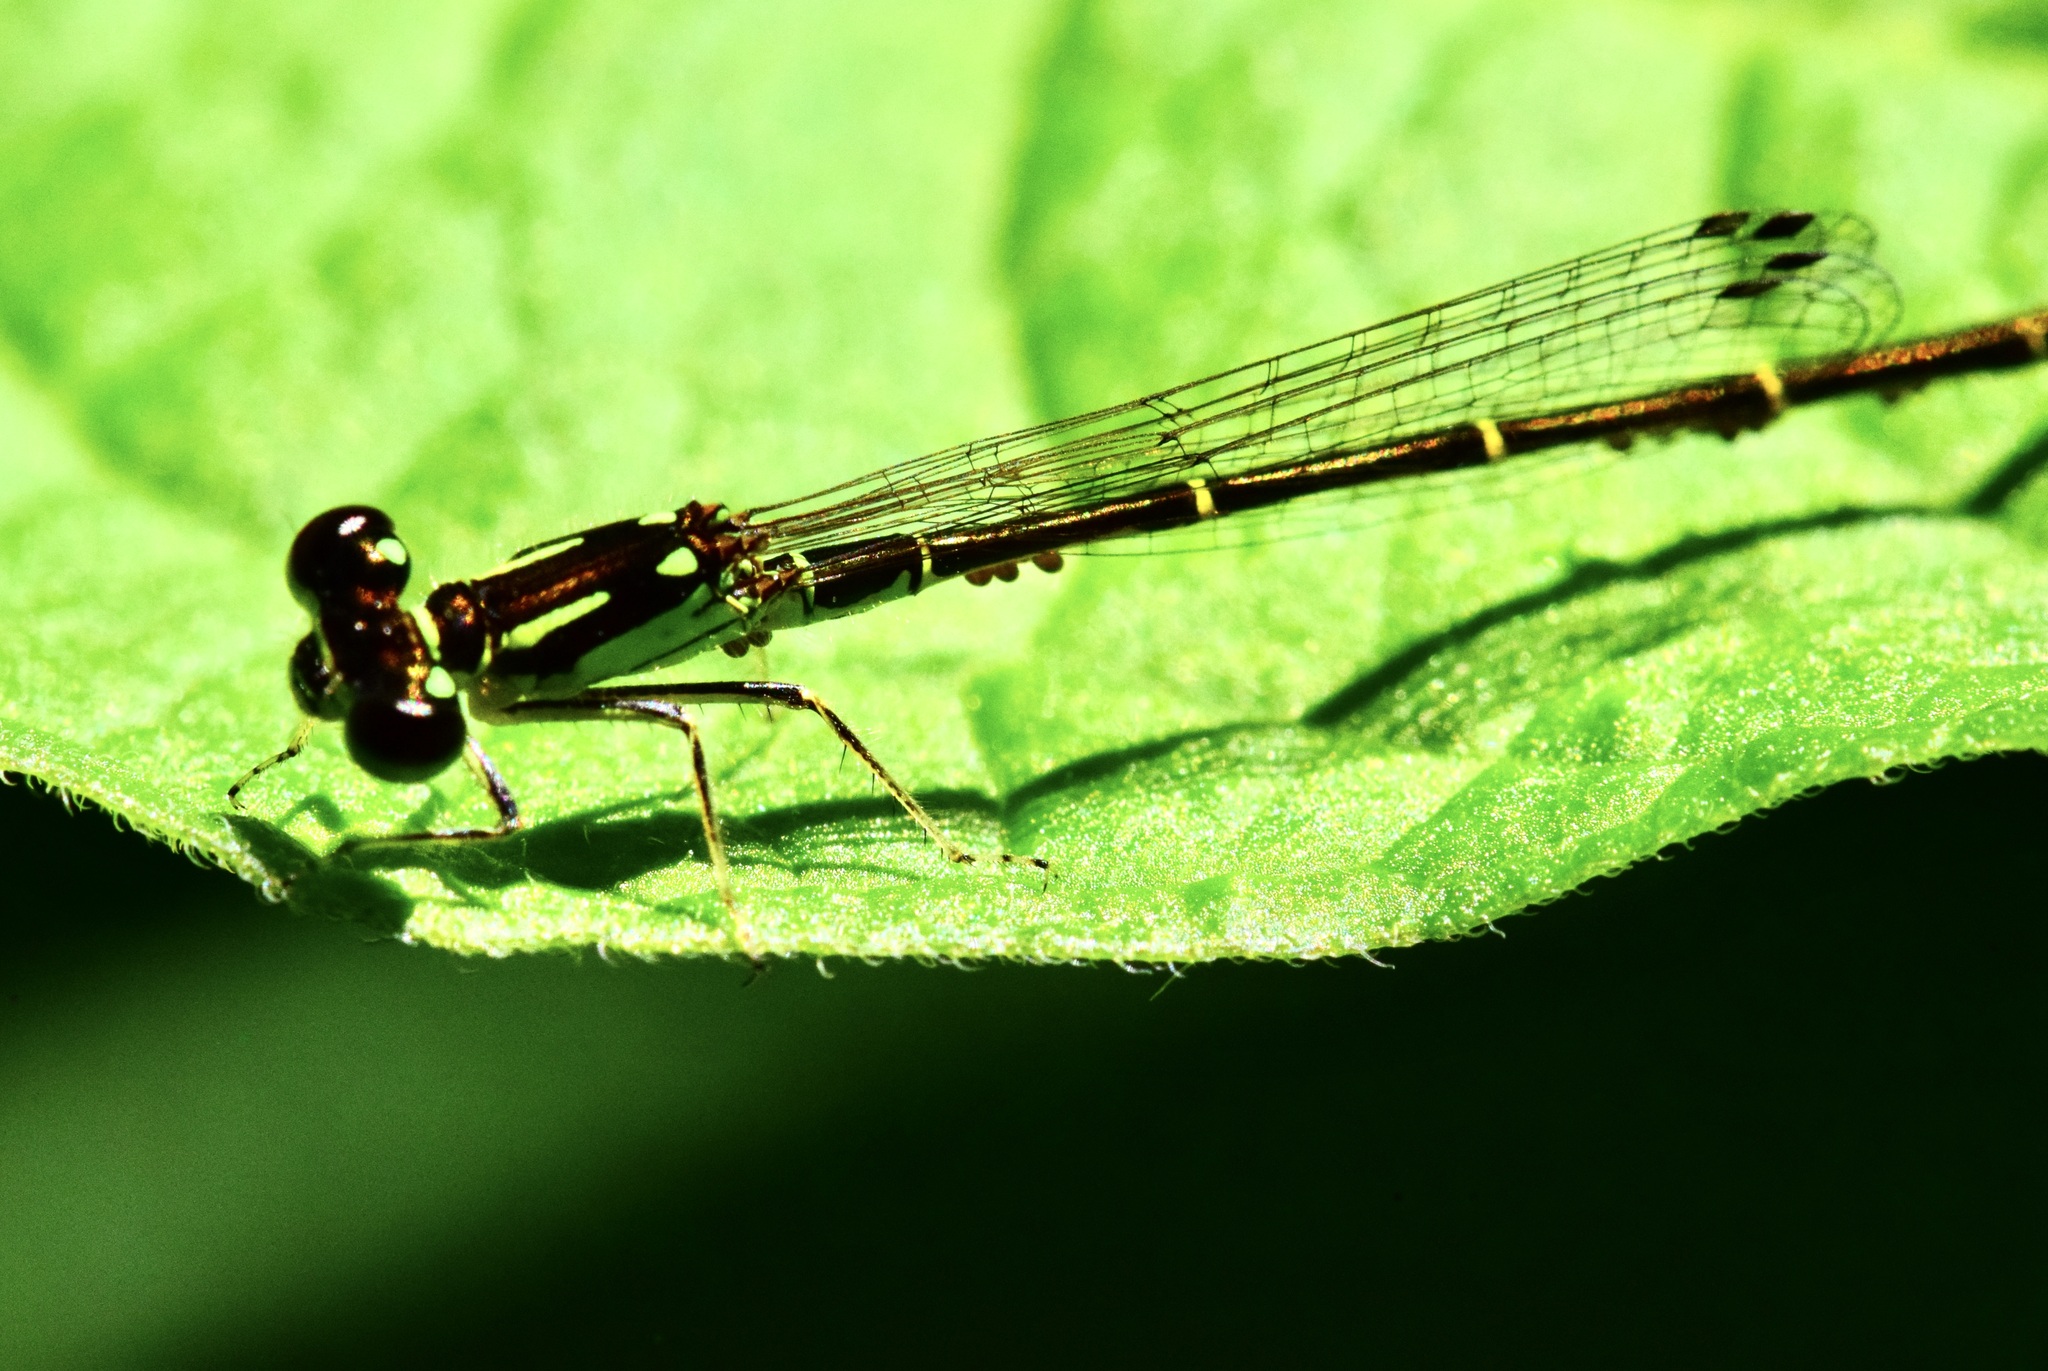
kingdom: Animalia
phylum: Arthropoda
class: Insecta
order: Odonata
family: Coenagrionidae
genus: Ischnura
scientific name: Ischnura posita
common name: Fragile forktail
